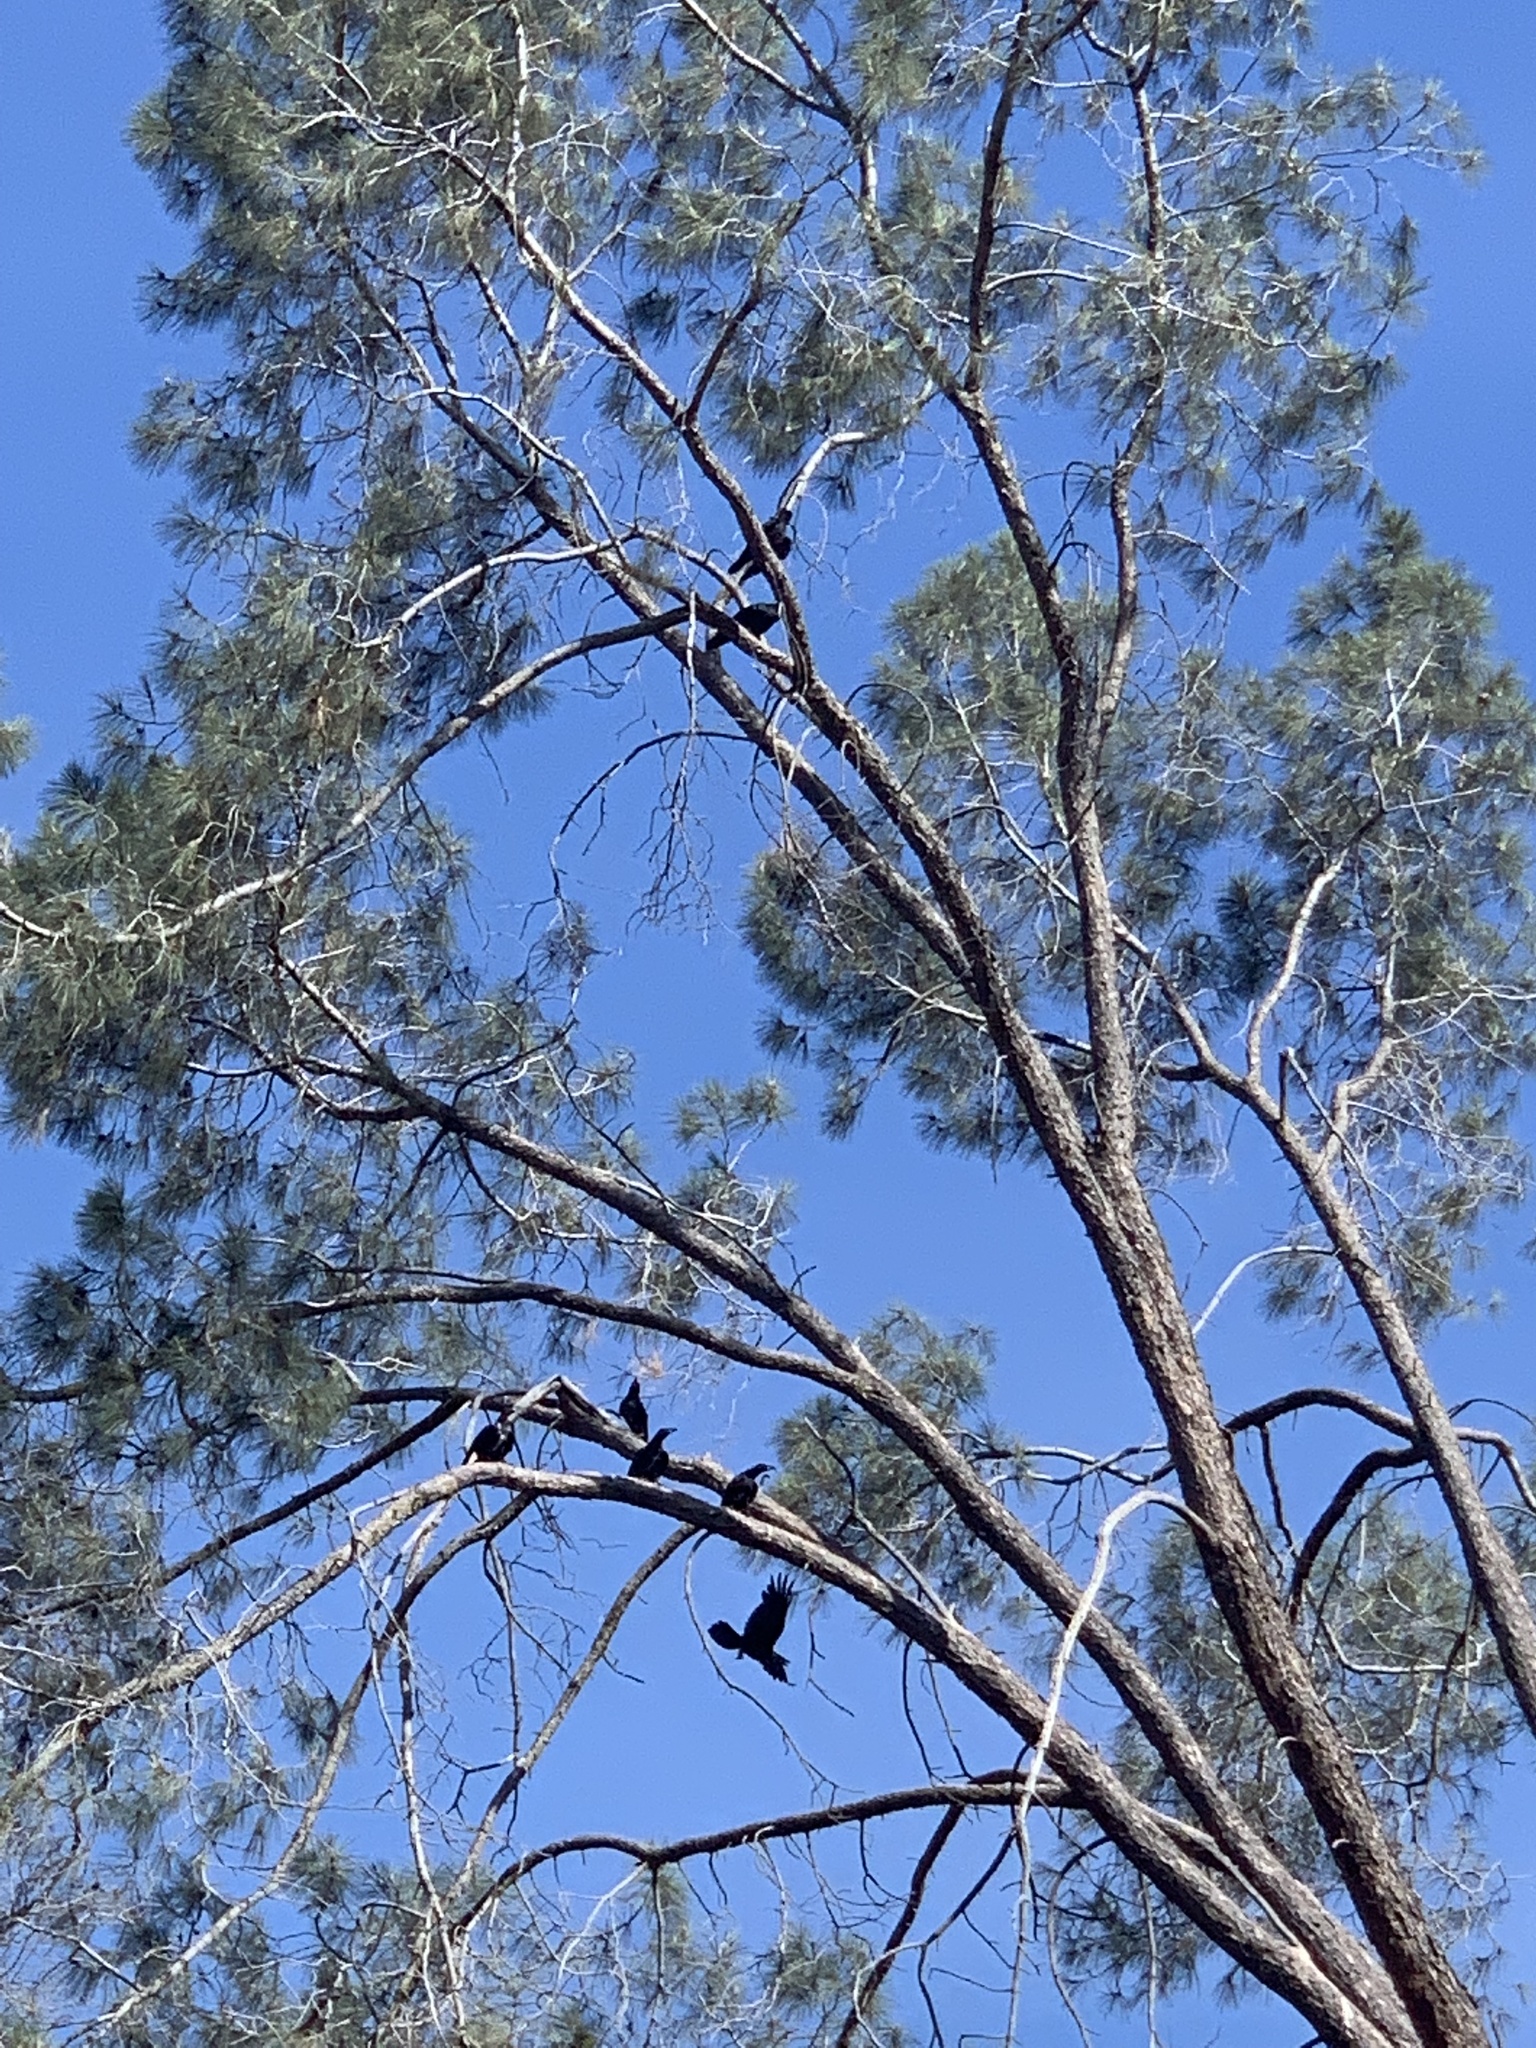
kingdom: Animalia
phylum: Chordata
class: Aves
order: Passeriformes
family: Corvidae
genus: Corvus
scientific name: Corvus brachyrhynchos
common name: American crow
